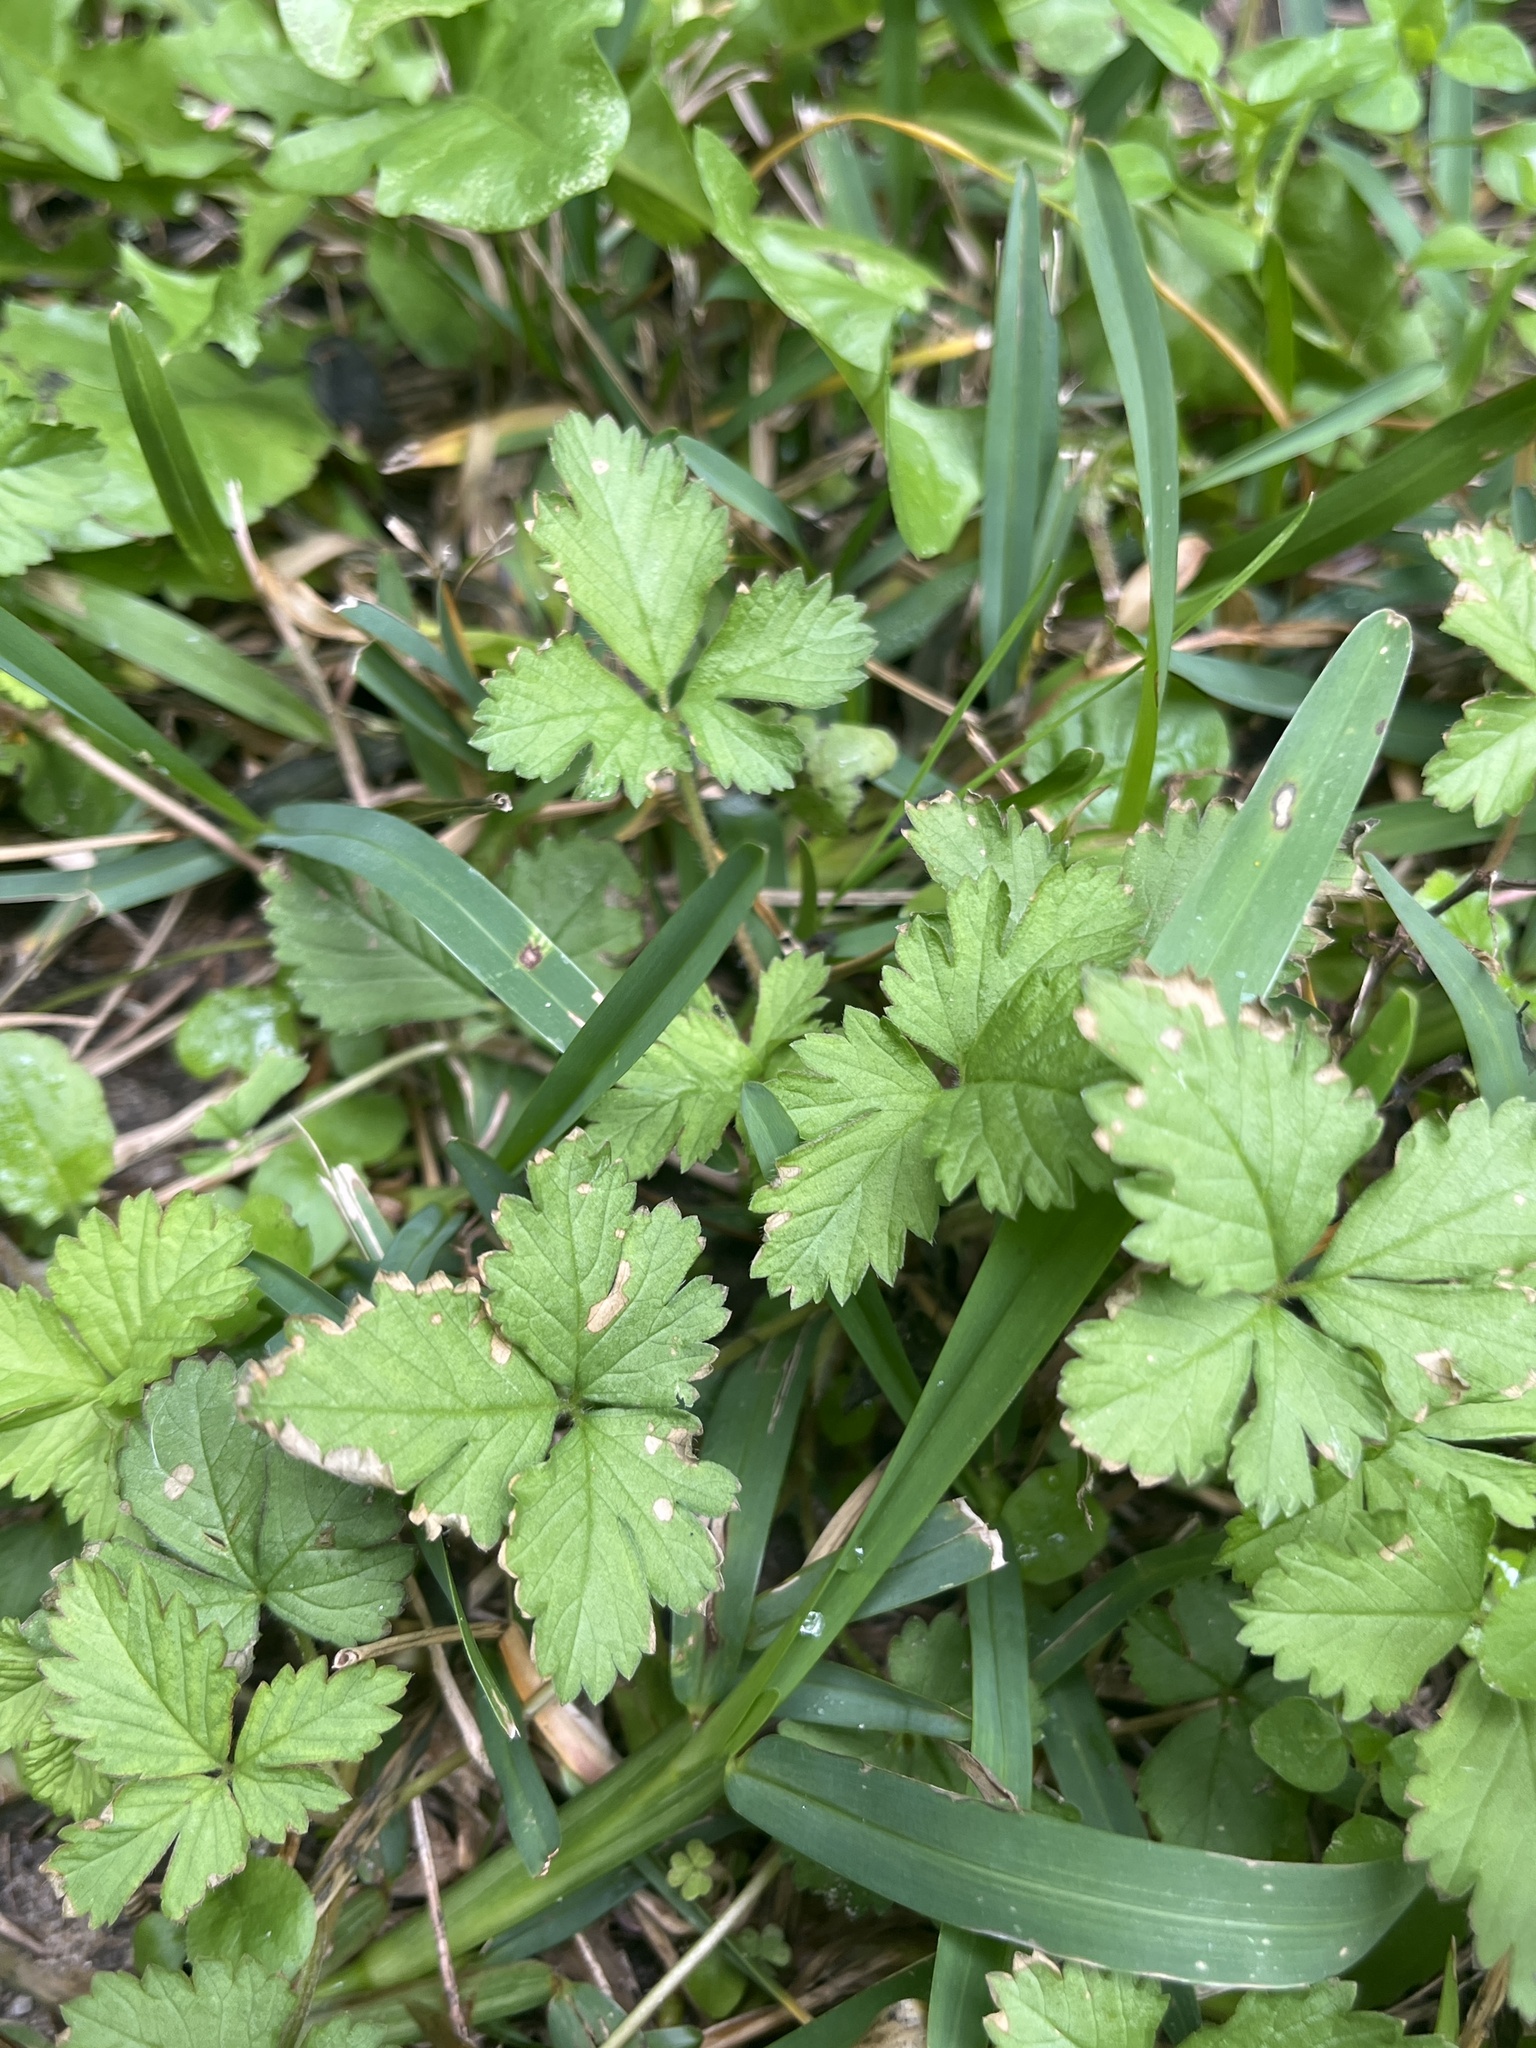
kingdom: Plantae
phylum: Tracheophyta
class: Magnoliopsida
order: Rosales
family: Rosaceae
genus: Potentilla
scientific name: Potentilla indica
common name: Yellow-flowered strawberry
